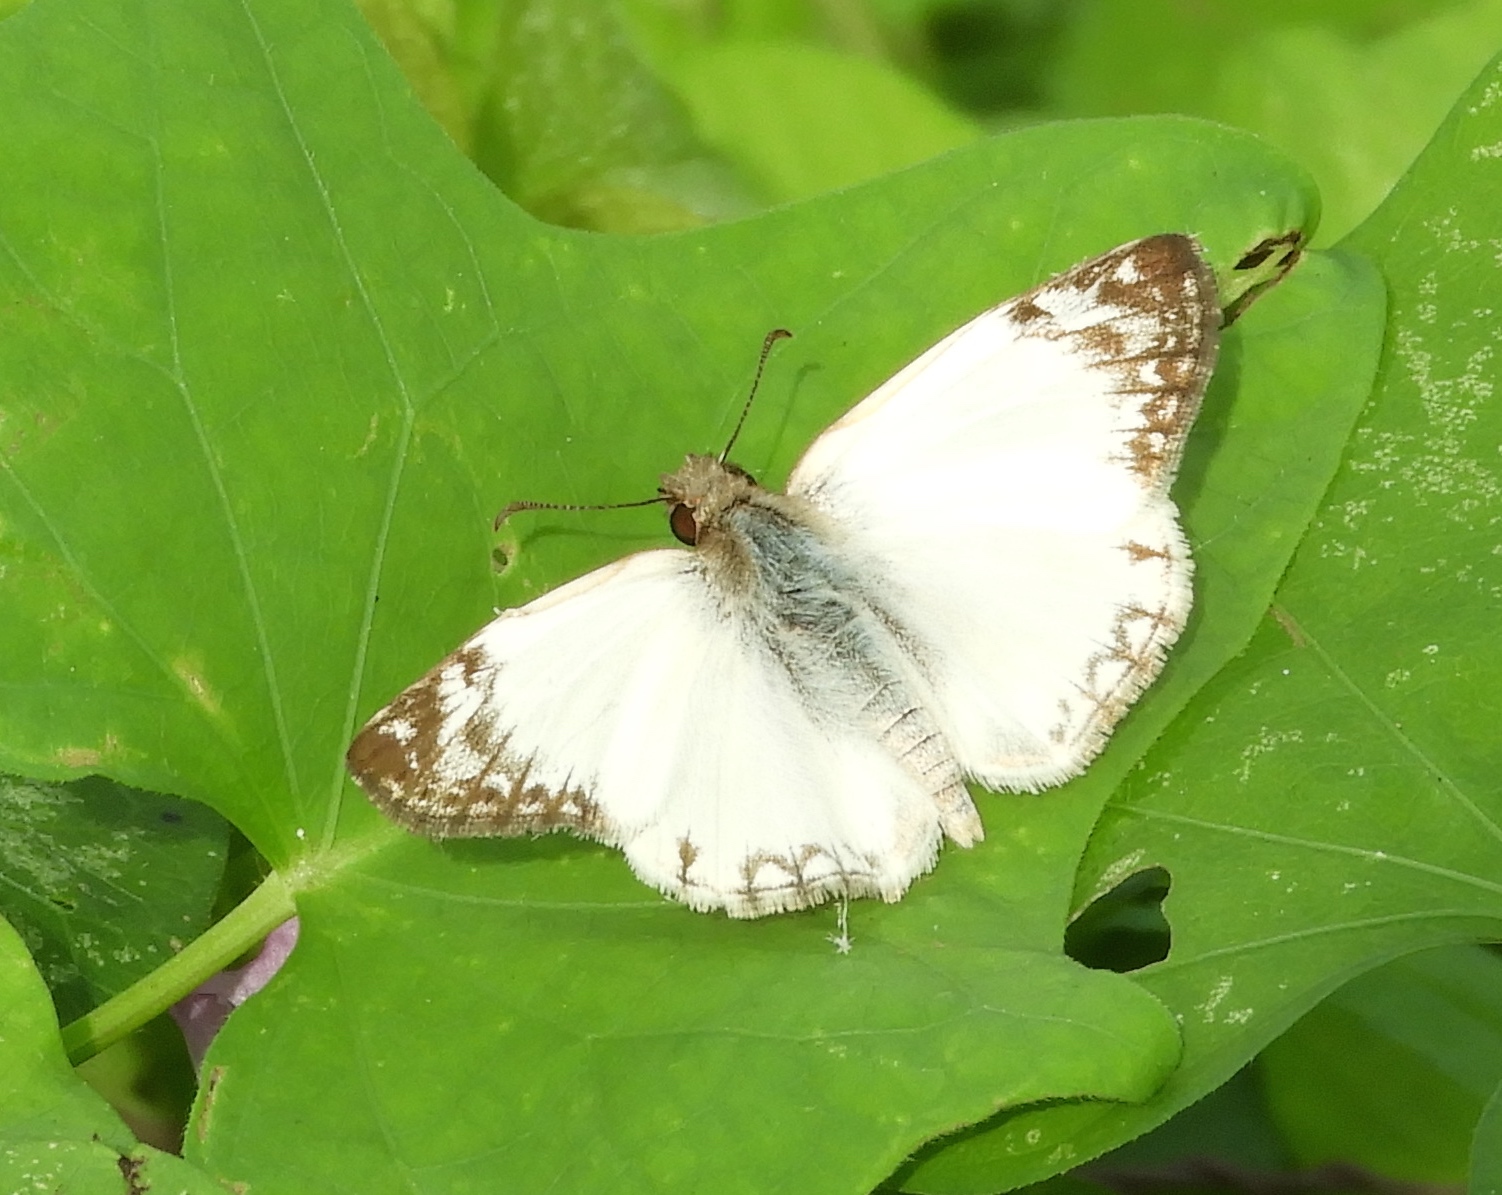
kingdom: Animalia
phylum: Arthropoda
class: Insecta
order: Lepidoptera
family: Hesperiidae
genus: Heliopetes
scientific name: Heliopetes laviana
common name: Laviana white-skipper
